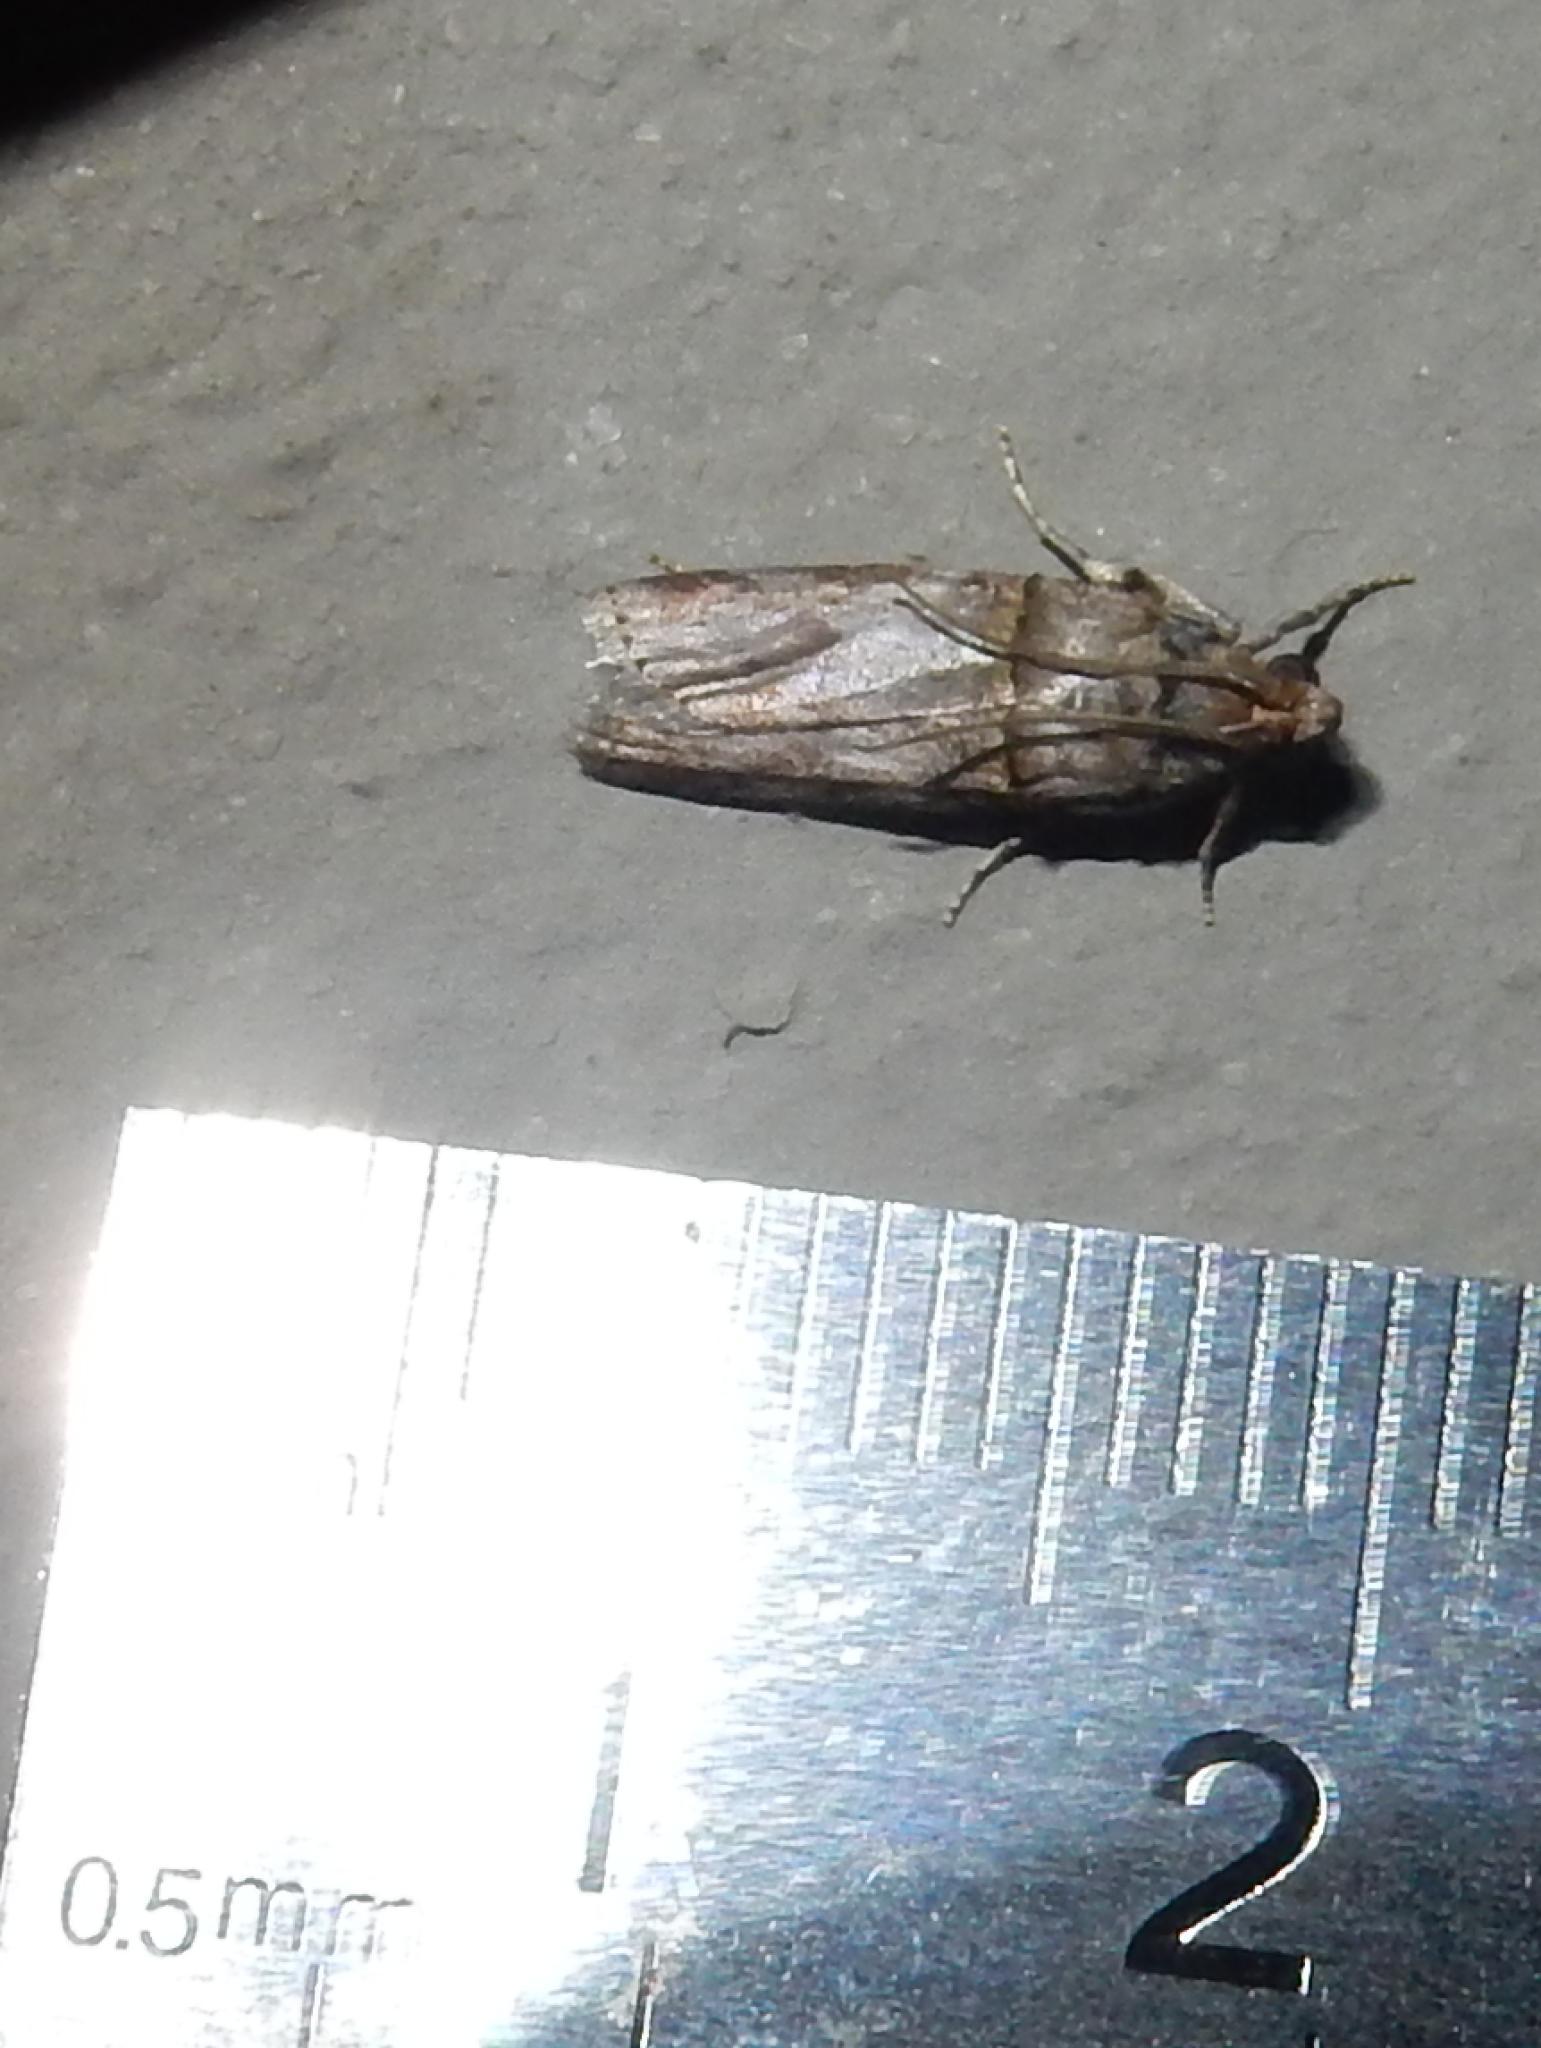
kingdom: Animalia
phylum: Arthropoda
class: Insecta
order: Lepidoptera
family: Pyralidae
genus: Hypargyria
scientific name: Hypargyria metalliferella
